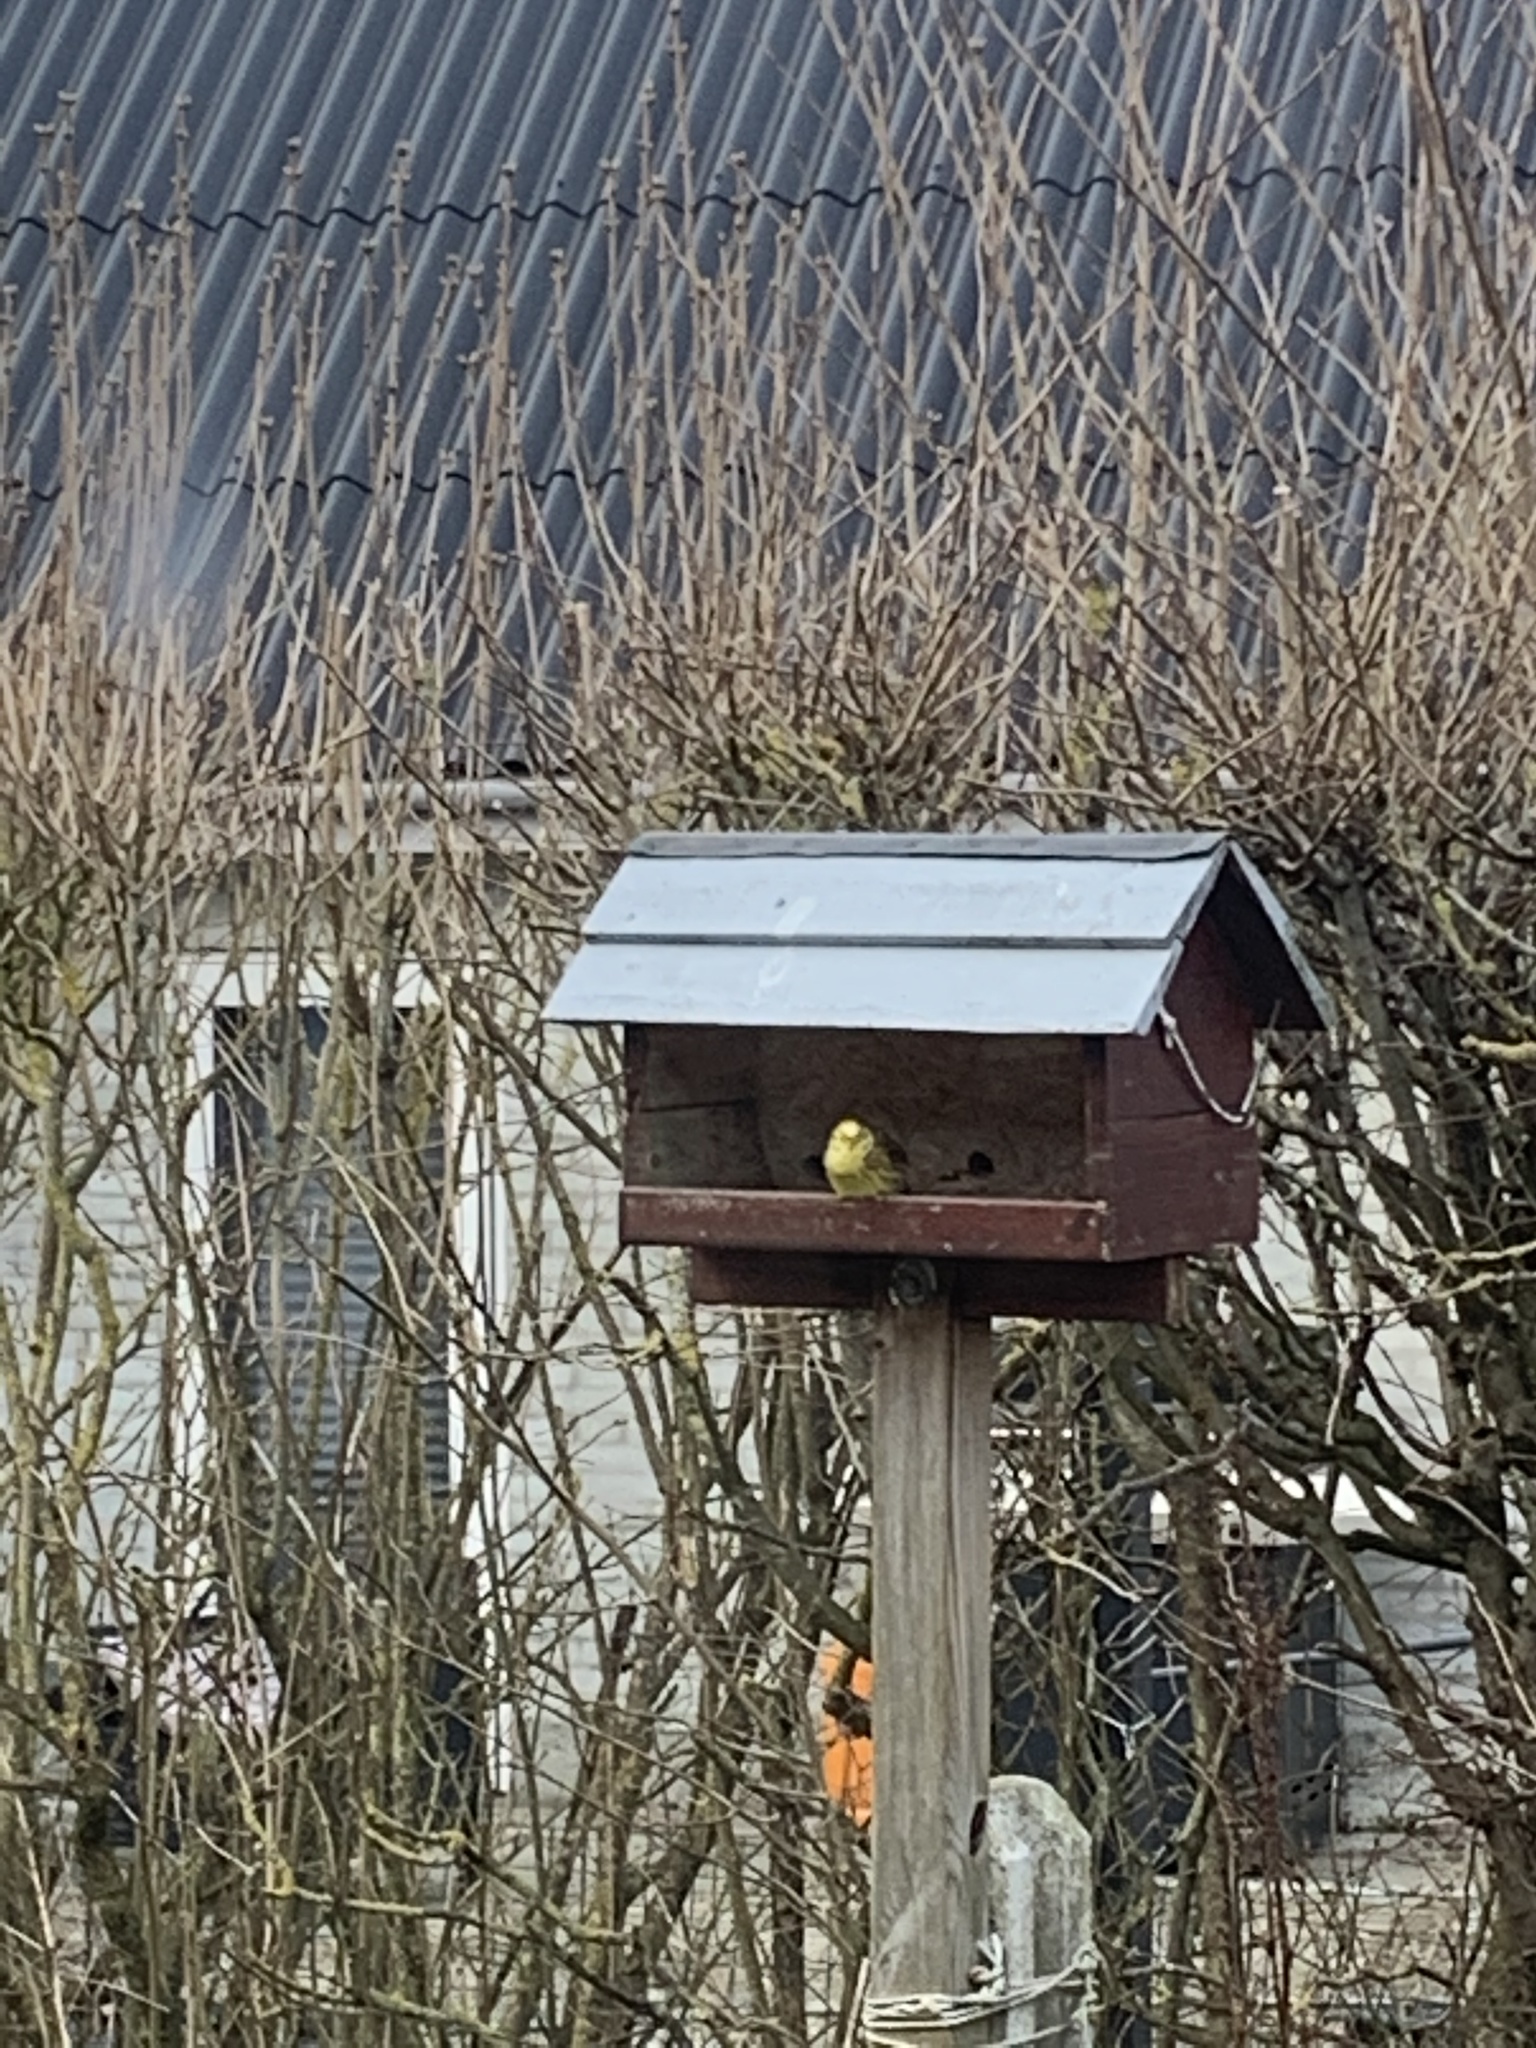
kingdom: Animalia
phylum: Chordata
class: Aves
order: Passeriformes
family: Emberizidae
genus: Emberiza
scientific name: Emberiza citrinella
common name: Yellowhammer
